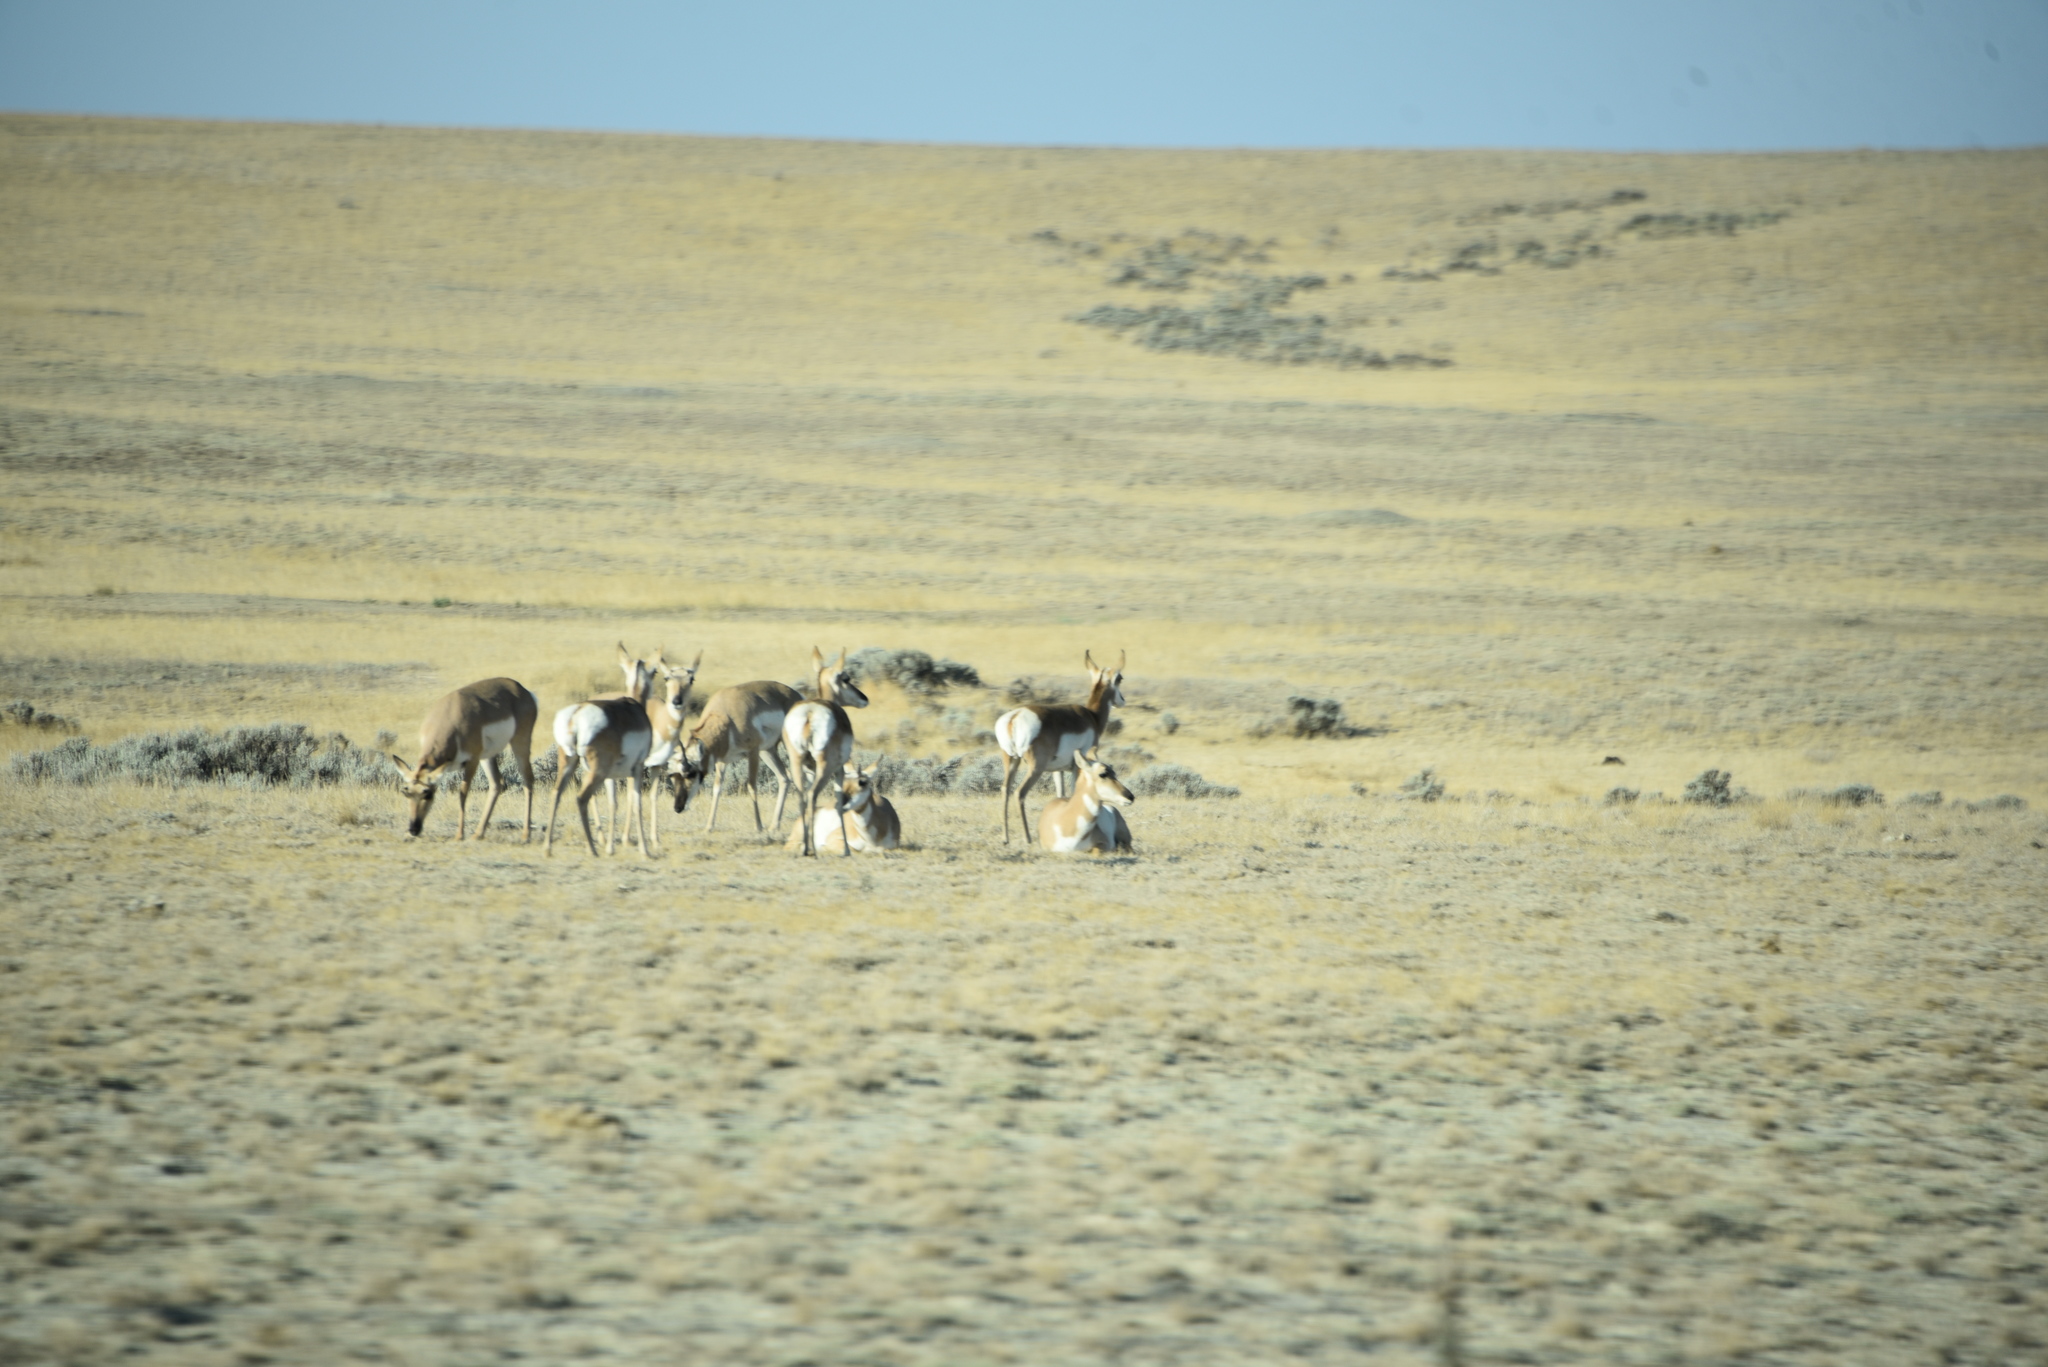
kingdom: Animalia
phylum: Chordata
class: Mammalia
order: Artiodactyla
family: Antilocapridae
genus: Antilocapra
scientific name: Antilocapra americana
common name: Pronghorn
